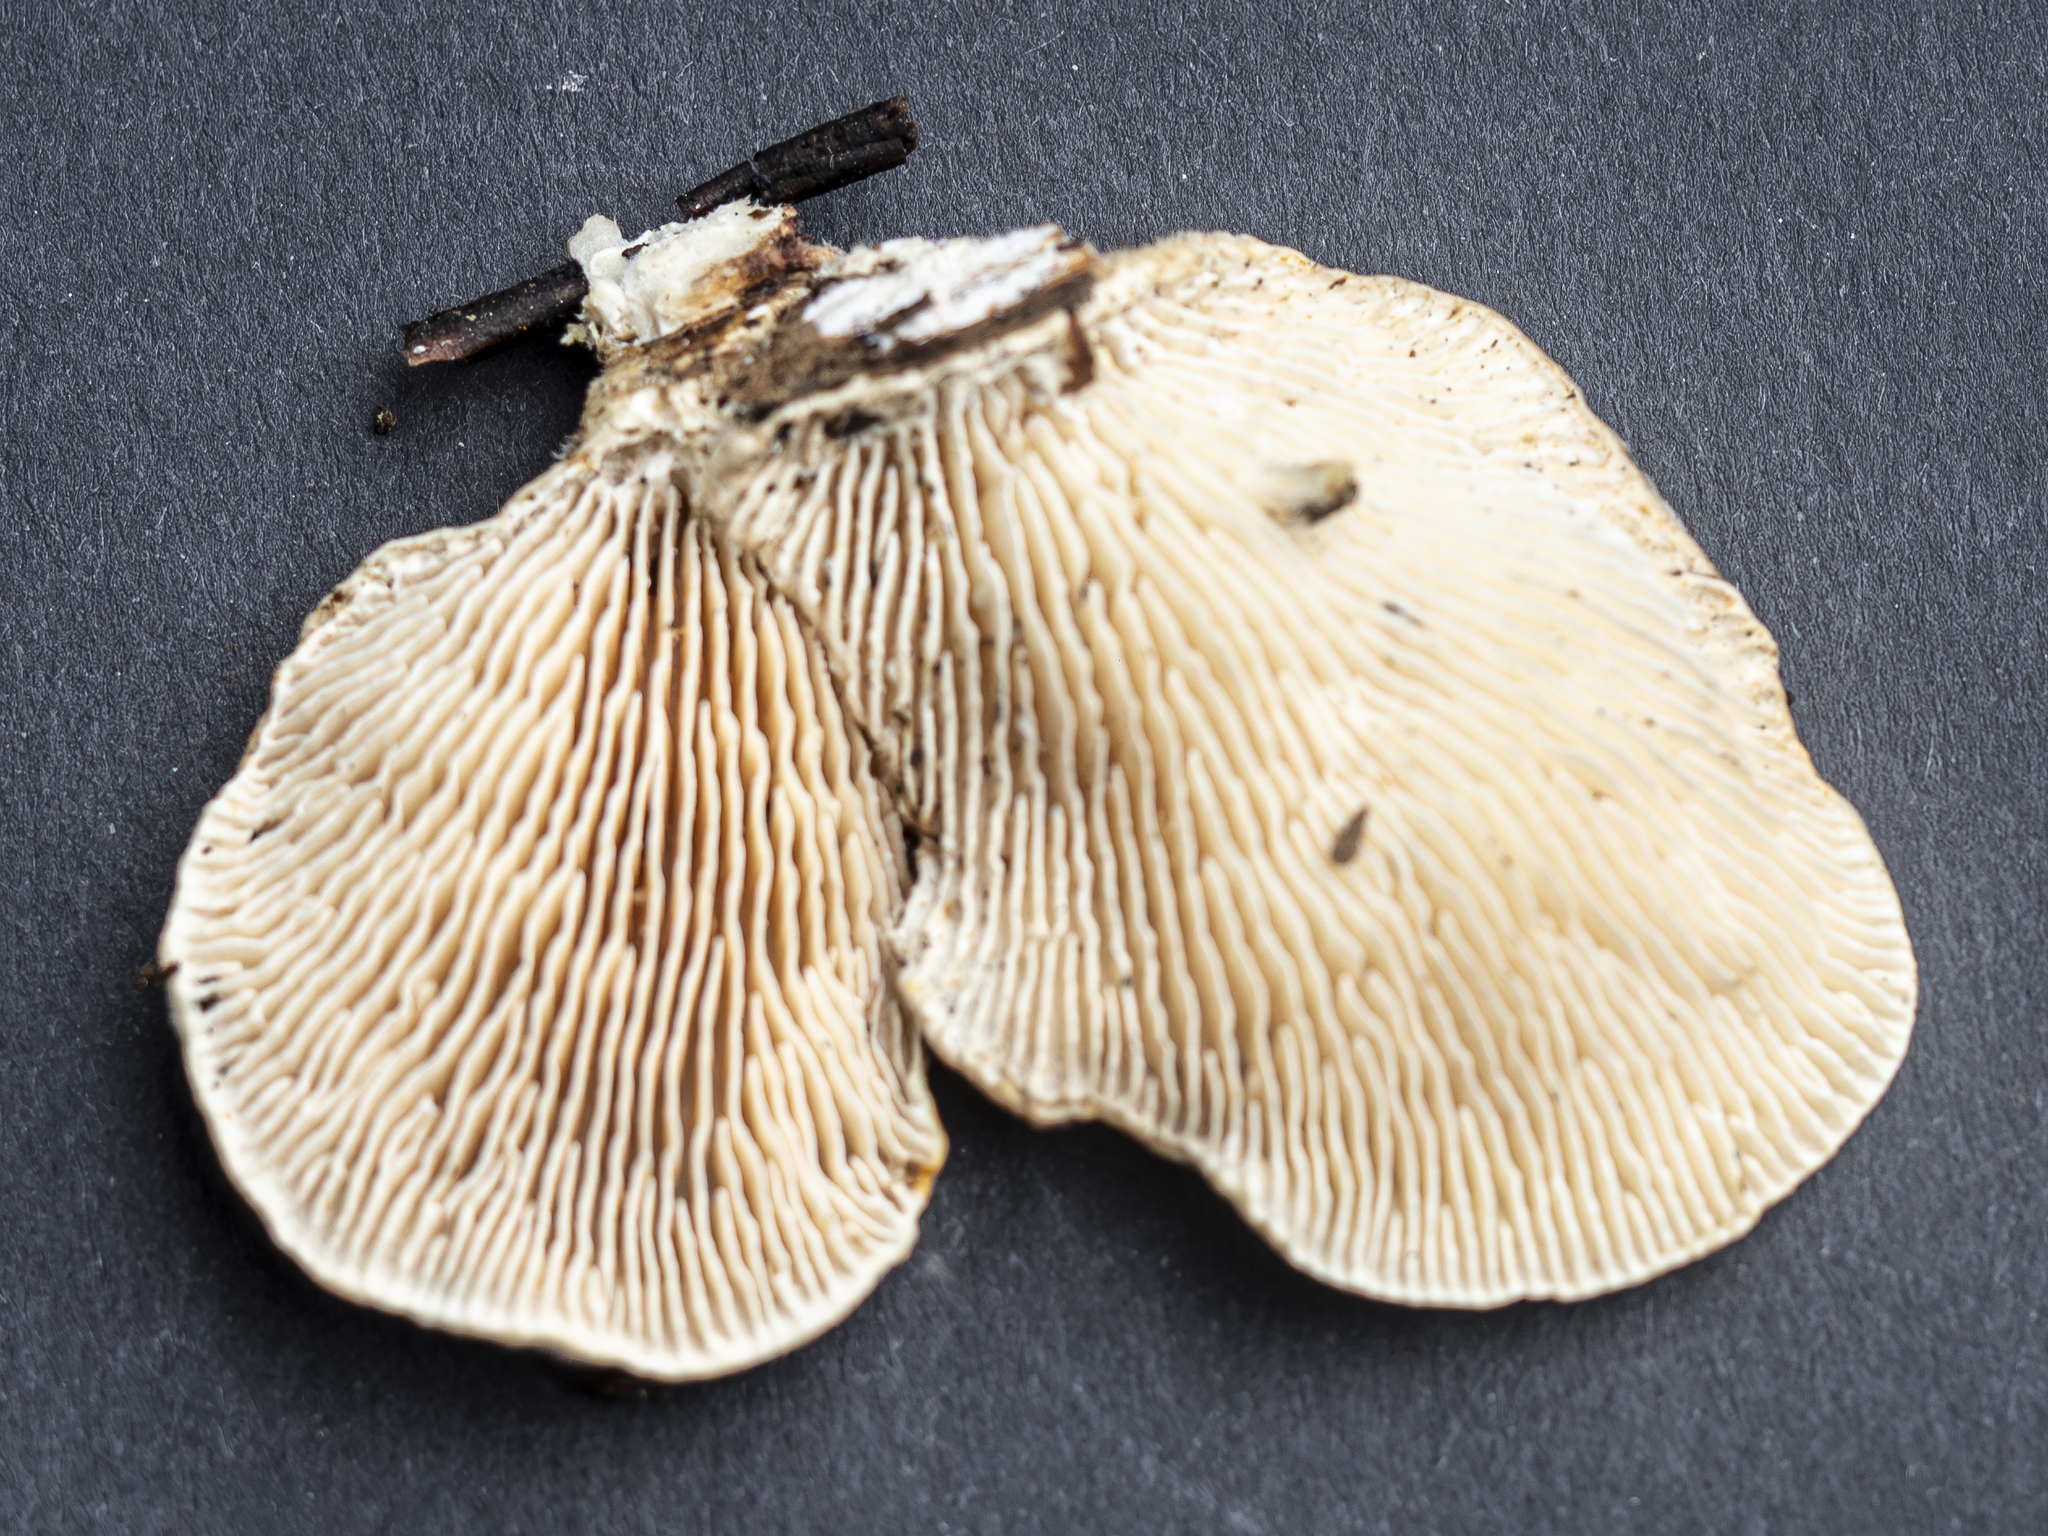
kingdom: Fungi
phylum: Basidiomycota
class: Agaricomycetes
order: Polyporales
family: Polyporaceae
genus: Lenzites
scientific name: Lenzites betulinus
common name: Birch mazegill
